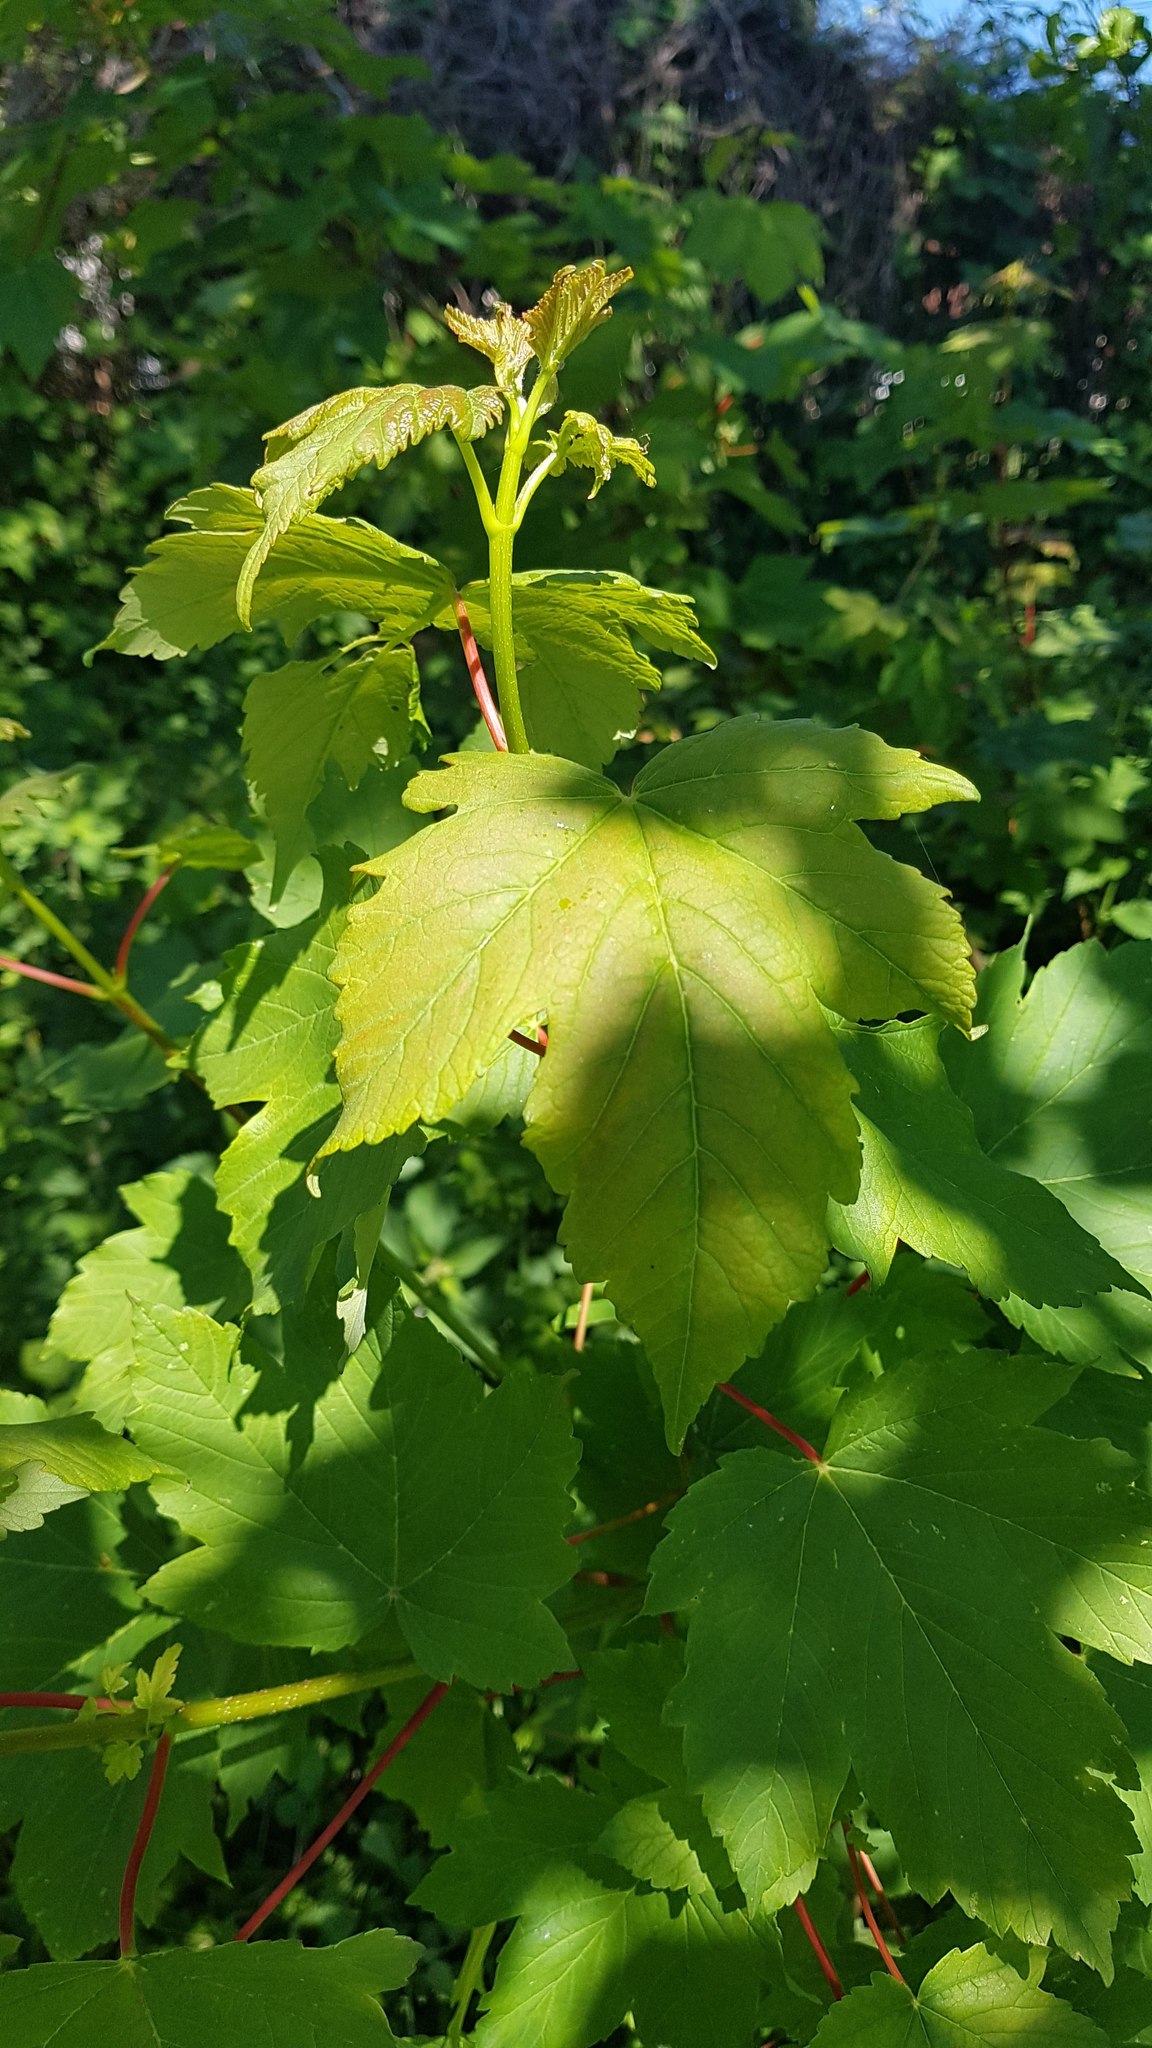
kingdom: Plantae
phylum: Tracheophyta
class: Magnoliopsida
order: Sapindales
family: Sapindaceae
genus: Acer
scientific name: Acer pseudoplatanus
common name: Sycamore
